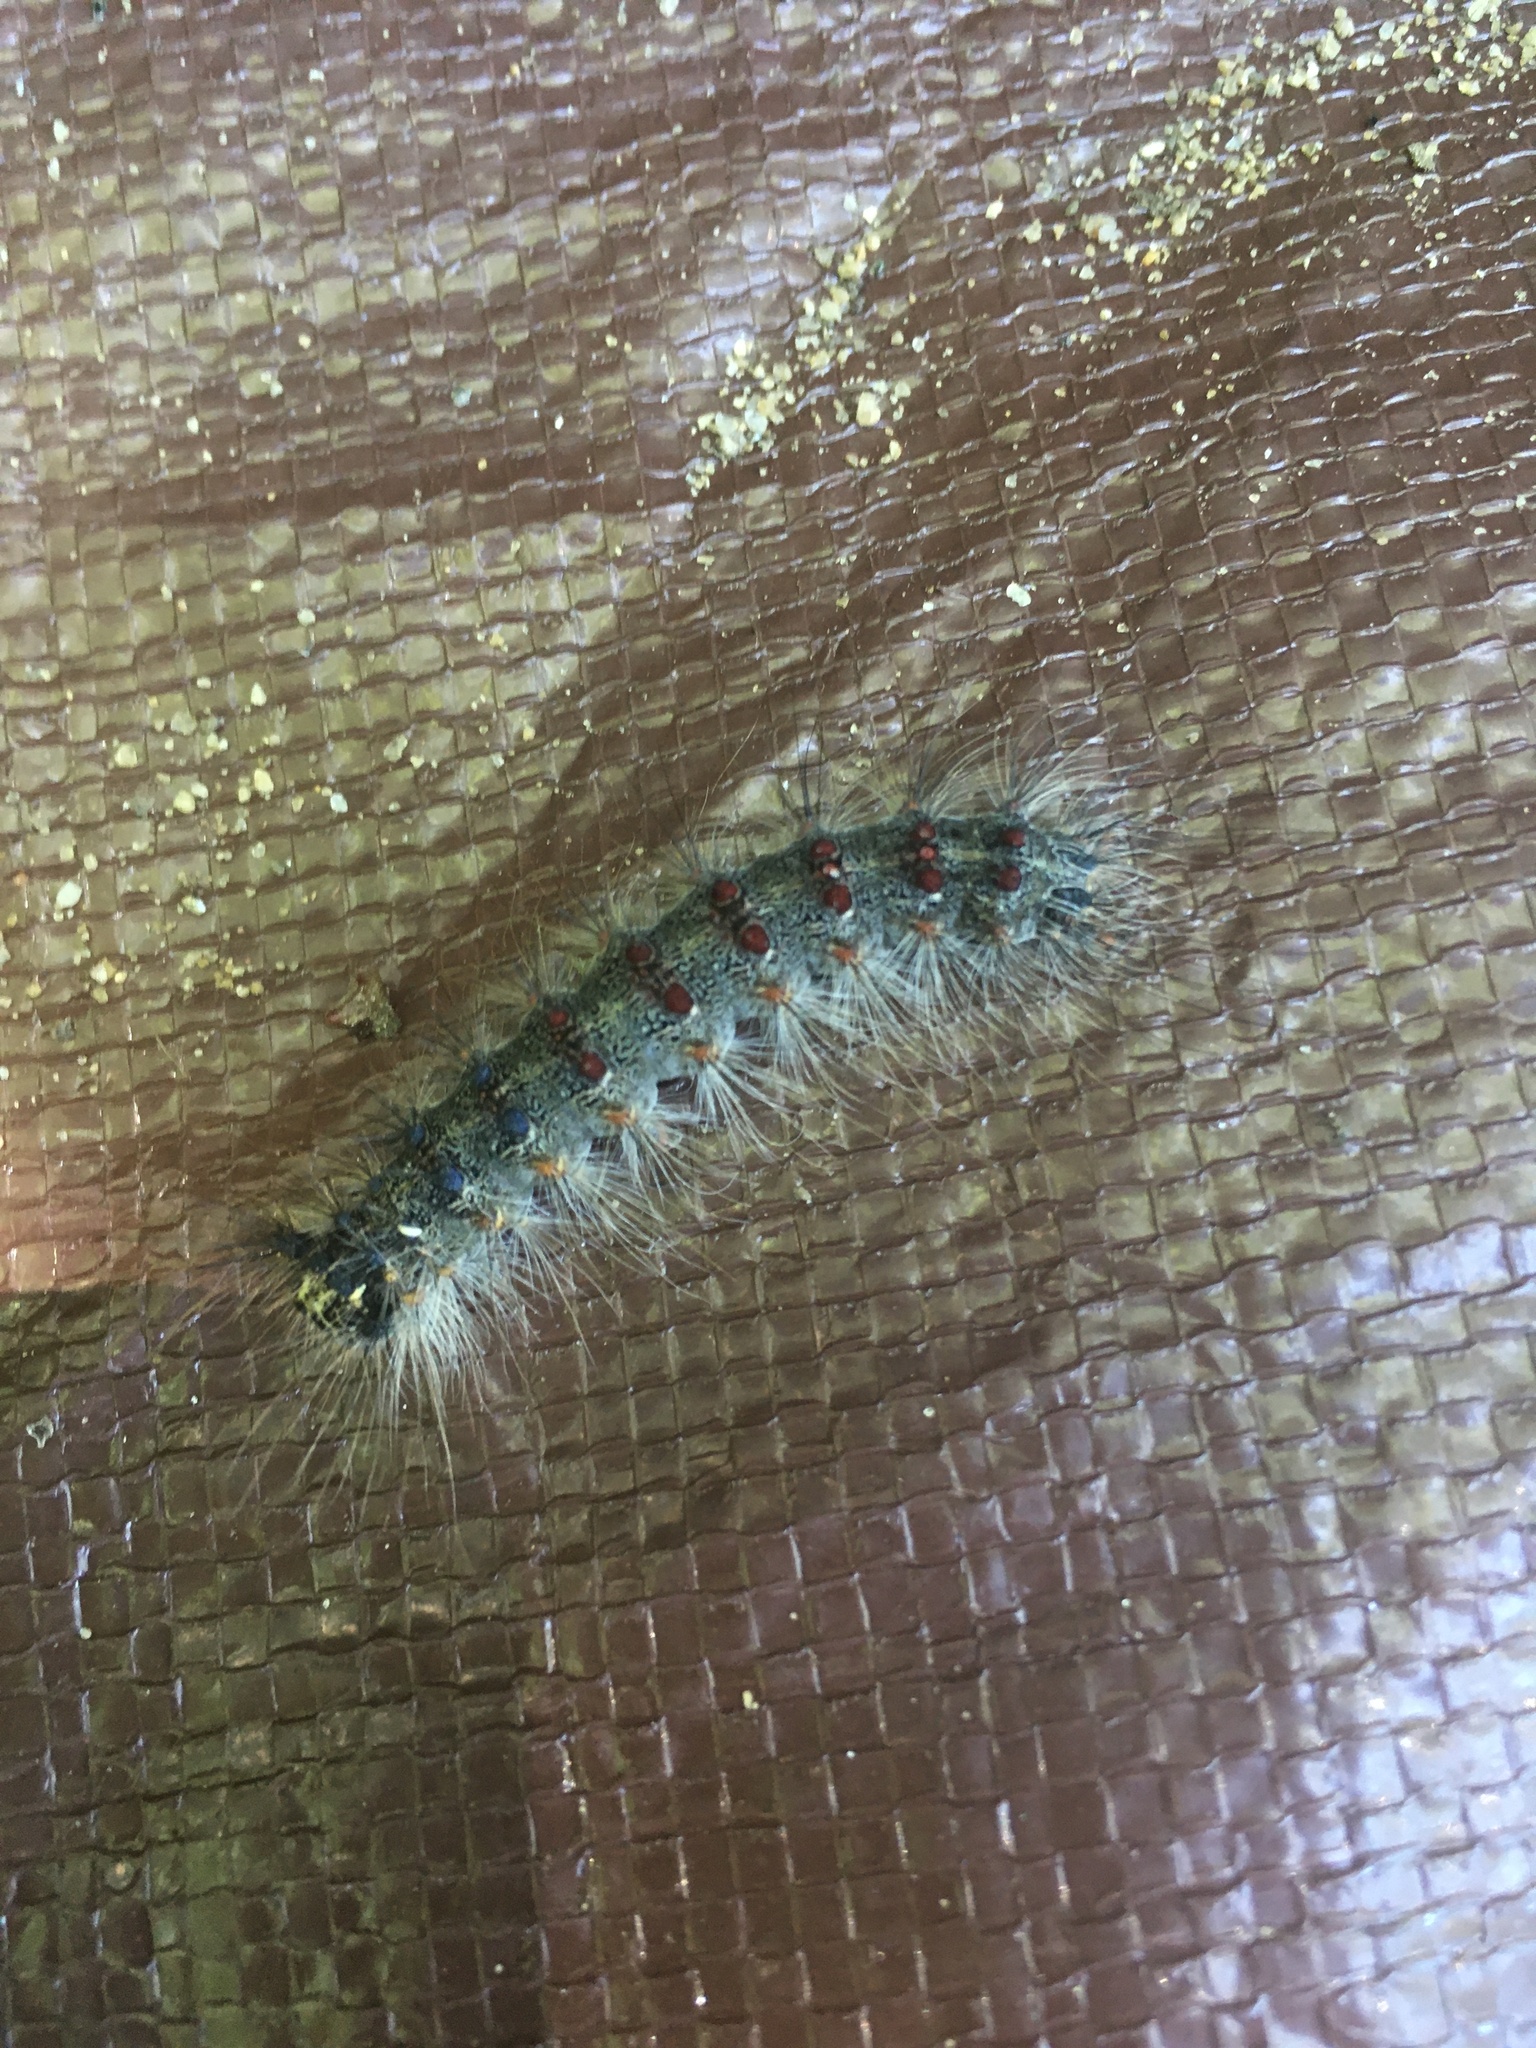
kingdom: Animalia
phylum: Arthropoda
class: Insecta
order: Lepidoptera
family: Erebidae
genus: Lymantria
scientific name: Lymantria dispar
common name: Gypsy moth
